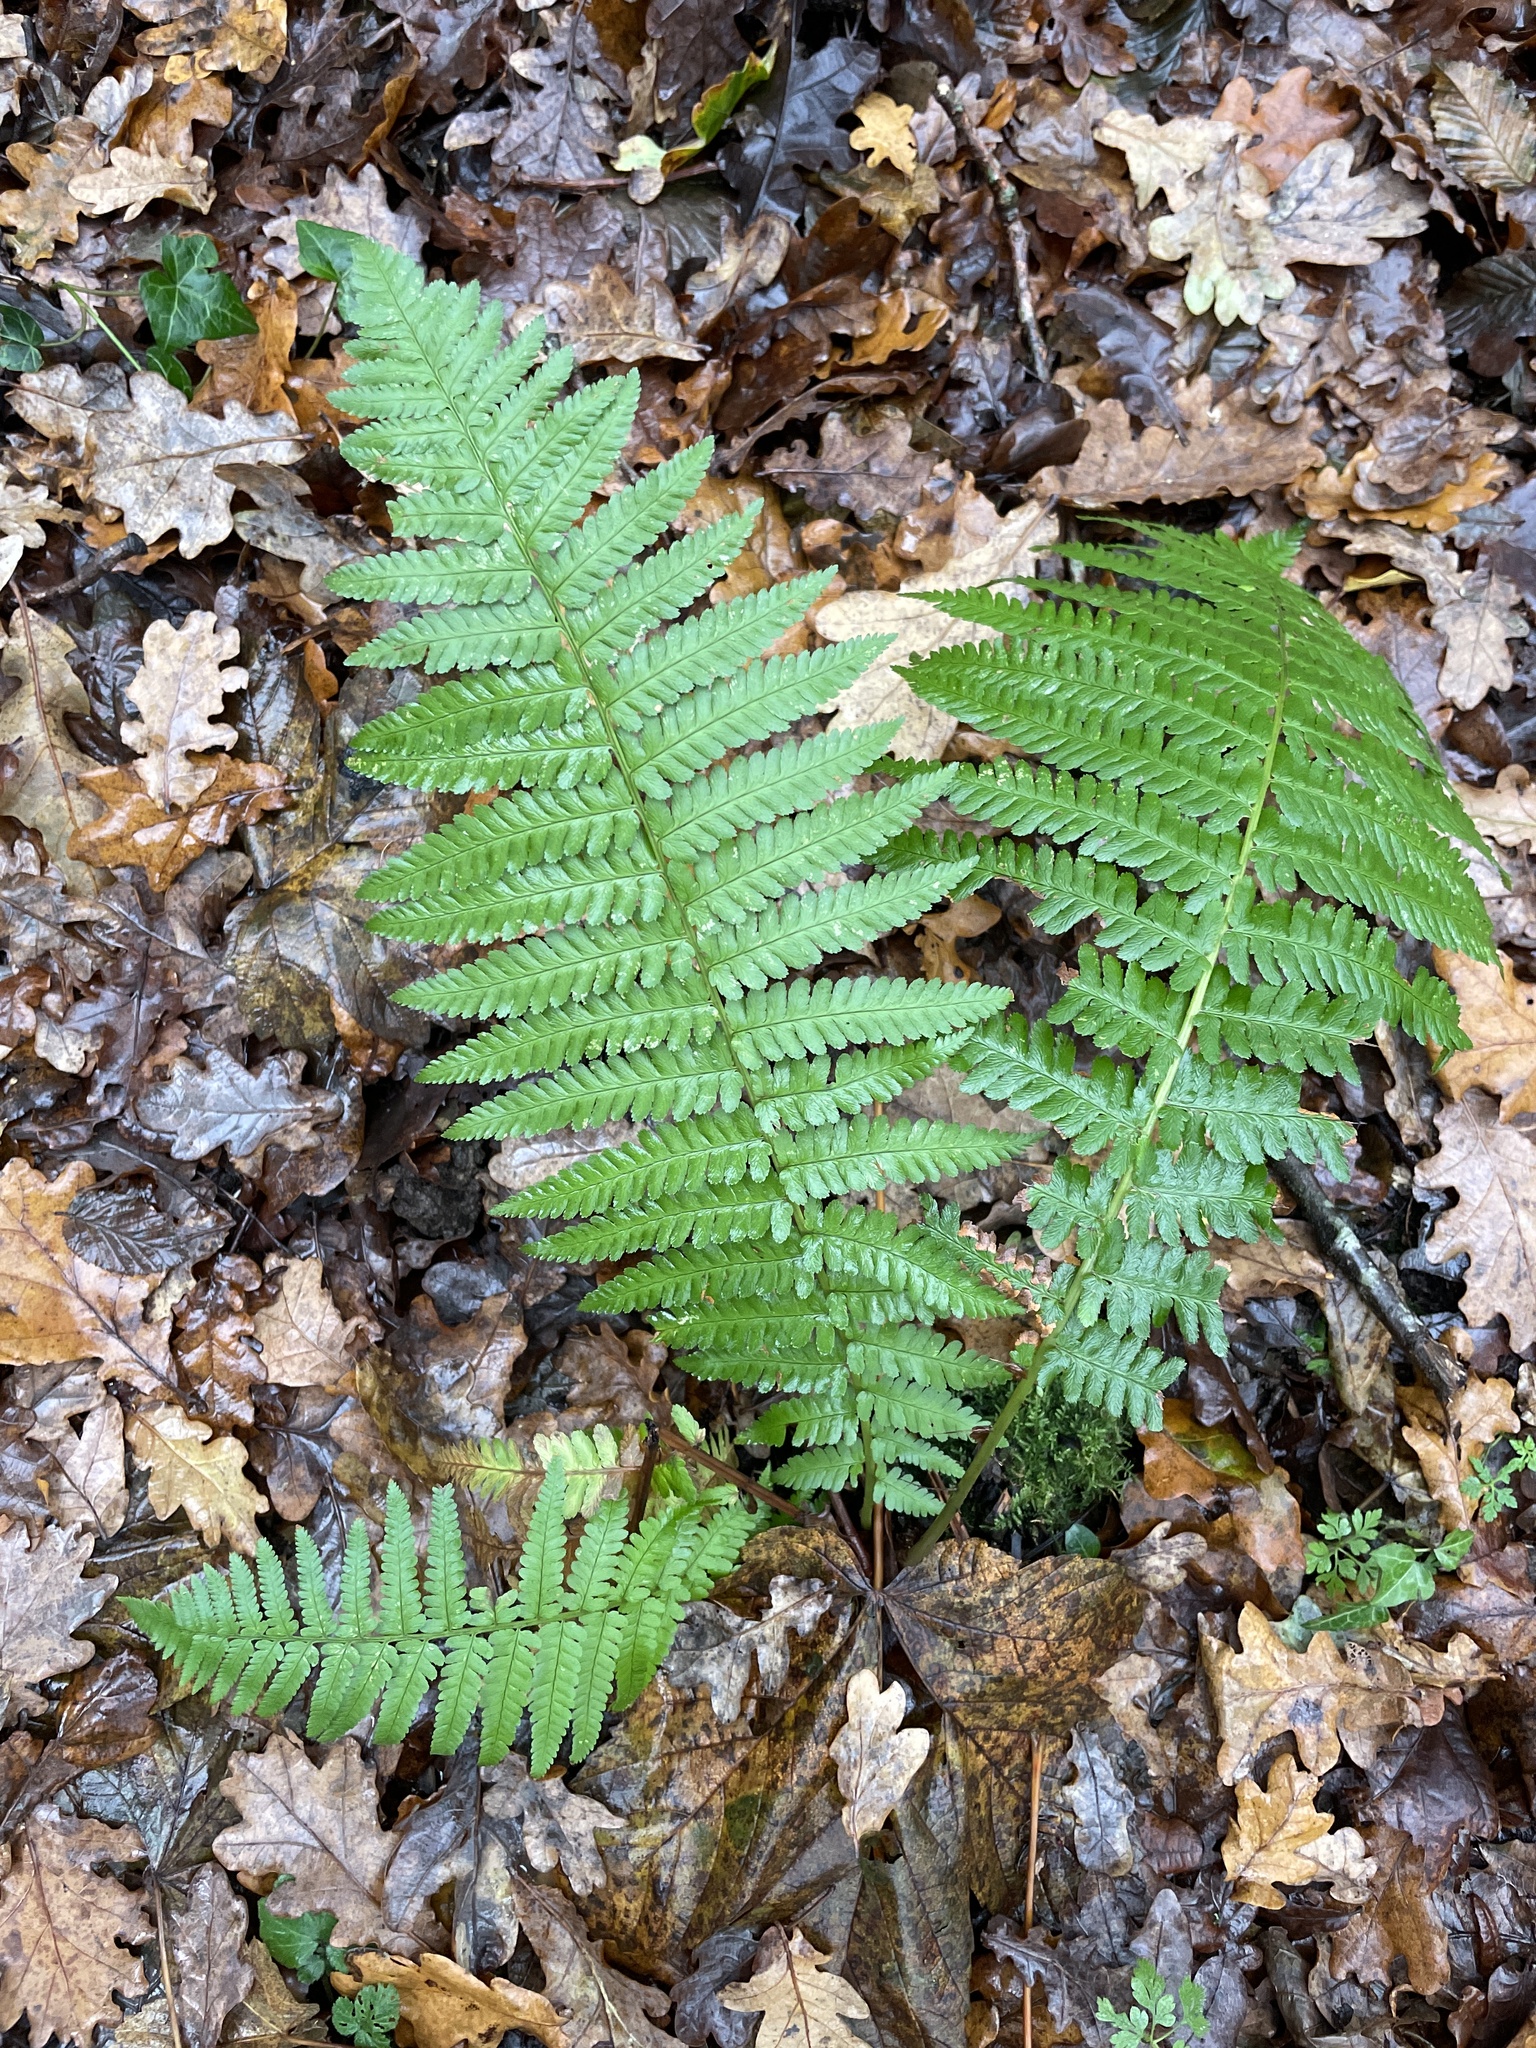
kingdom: Plantae
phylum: Tracheophyta
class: Polypodiopsida
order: Polypodiales
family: Dryopteridaceae
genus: Dryopteris
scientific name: Dryopteris filix-mas
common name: Male fern
